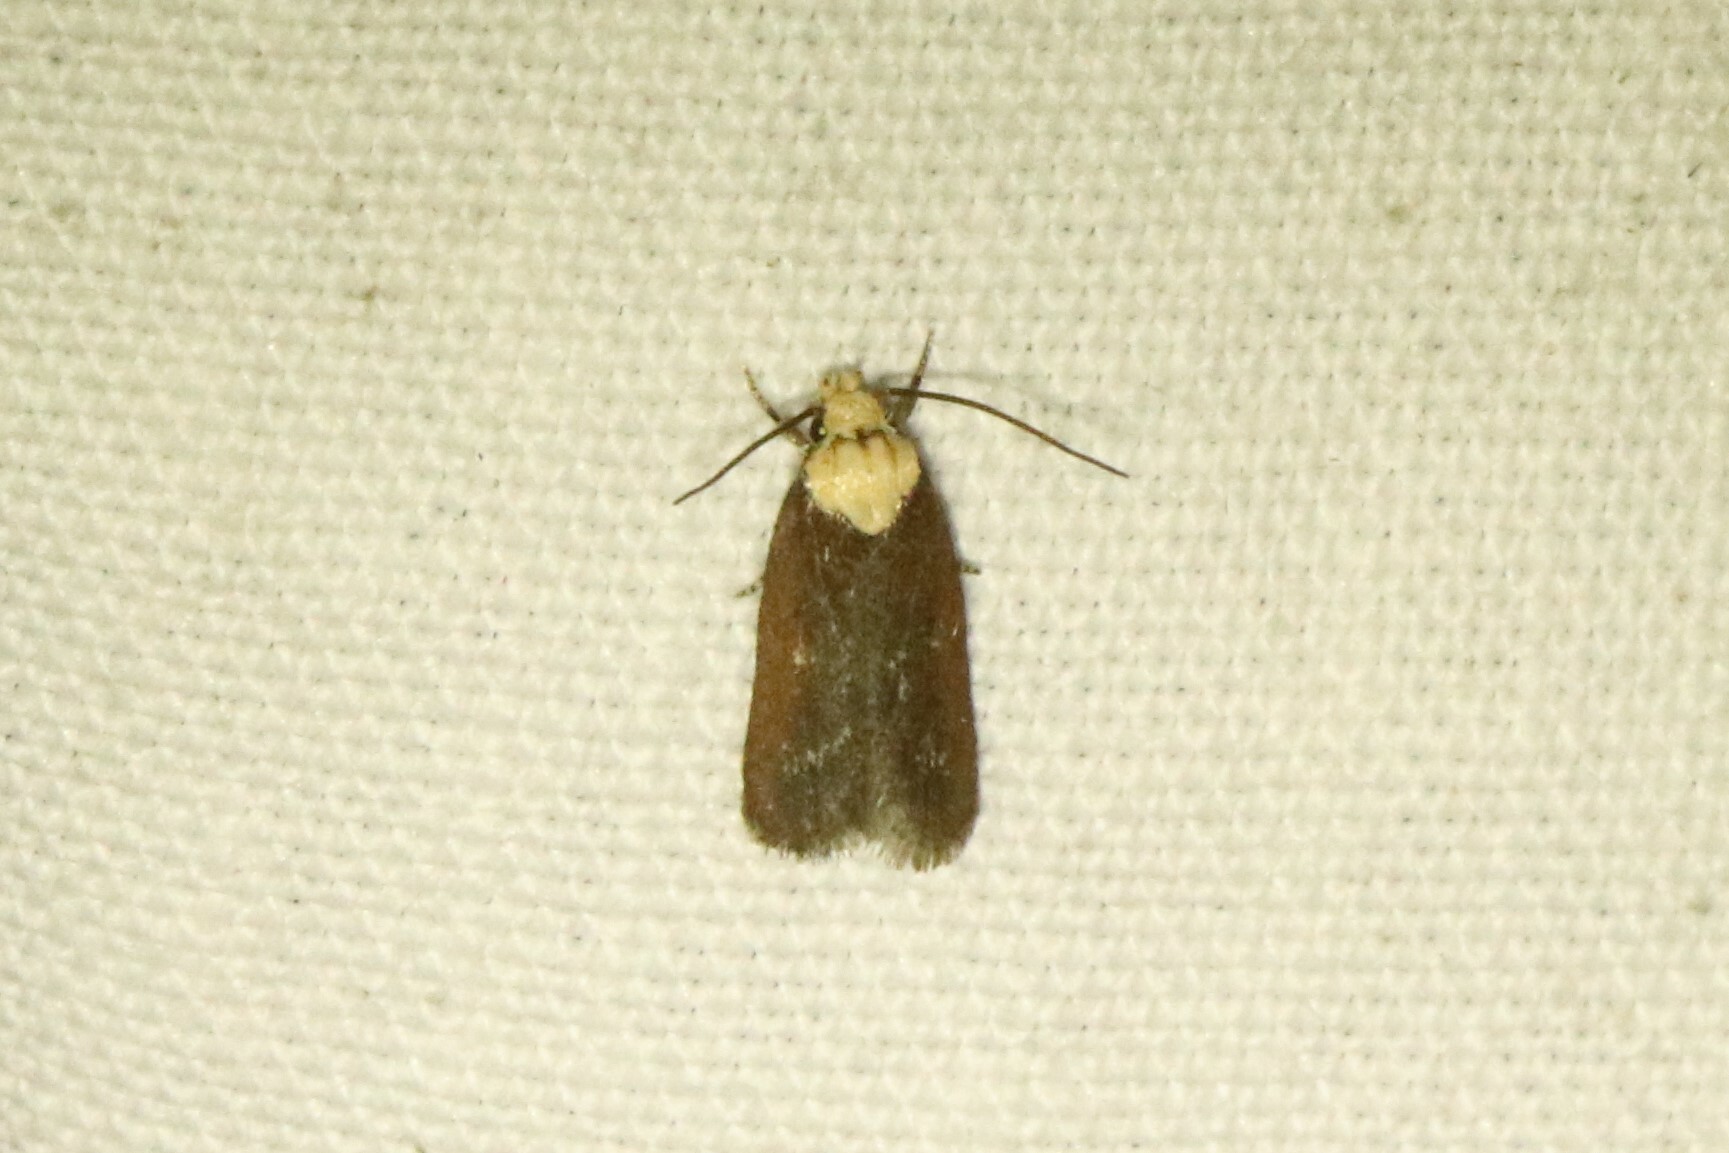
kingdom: Animalia
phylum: Arthropoda
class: Insecta
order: Lepidoptera
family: Depressariidae
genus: Depressaria
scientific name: Depressaria depressana
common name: Lost flat-body
